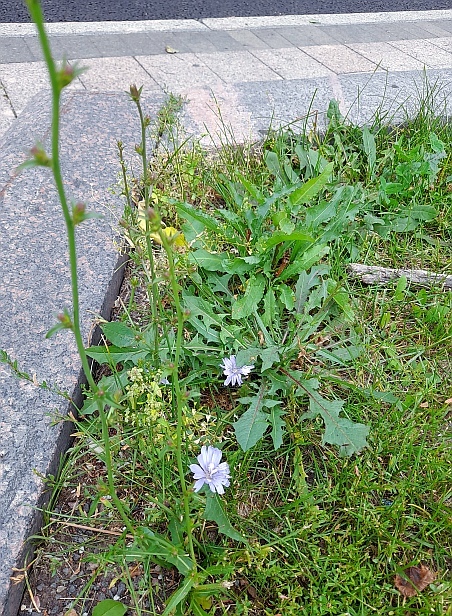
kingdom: Plantae
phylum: Tracheophyta
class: Magnoliopsida
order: Asterales
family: Asteraceae
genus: Cichorium
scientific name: Cichorium intybus
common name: Chicory
